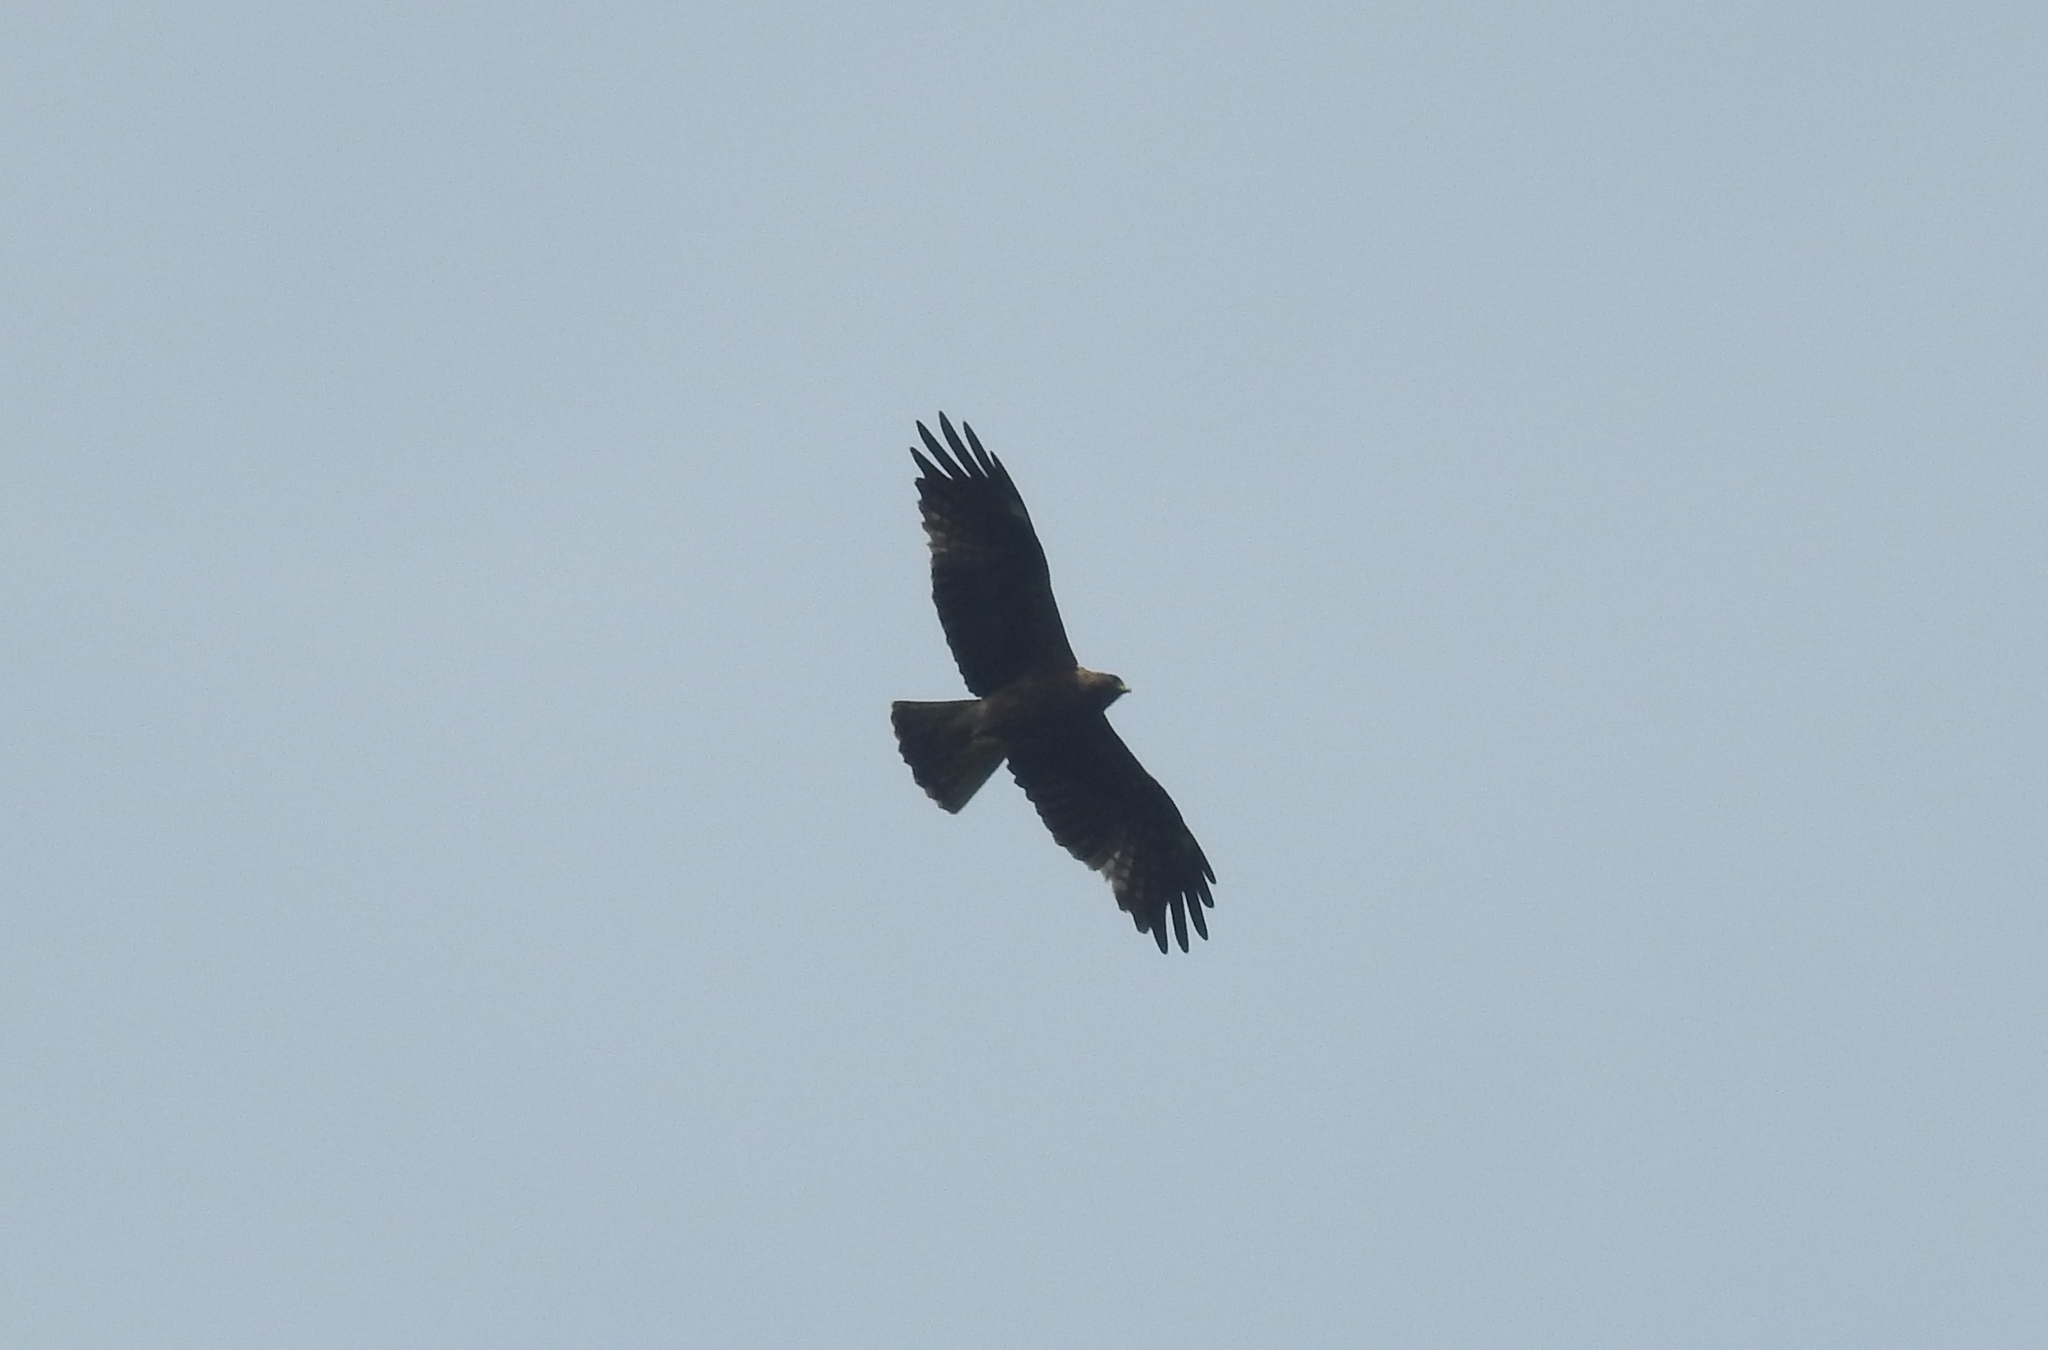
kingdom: Animalia
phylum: Chordata
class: Aves
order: Accipitriformes
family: Accipitridae
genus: Hieraaetus
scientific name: Hieraaetus pennatus
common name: Booted eagle
